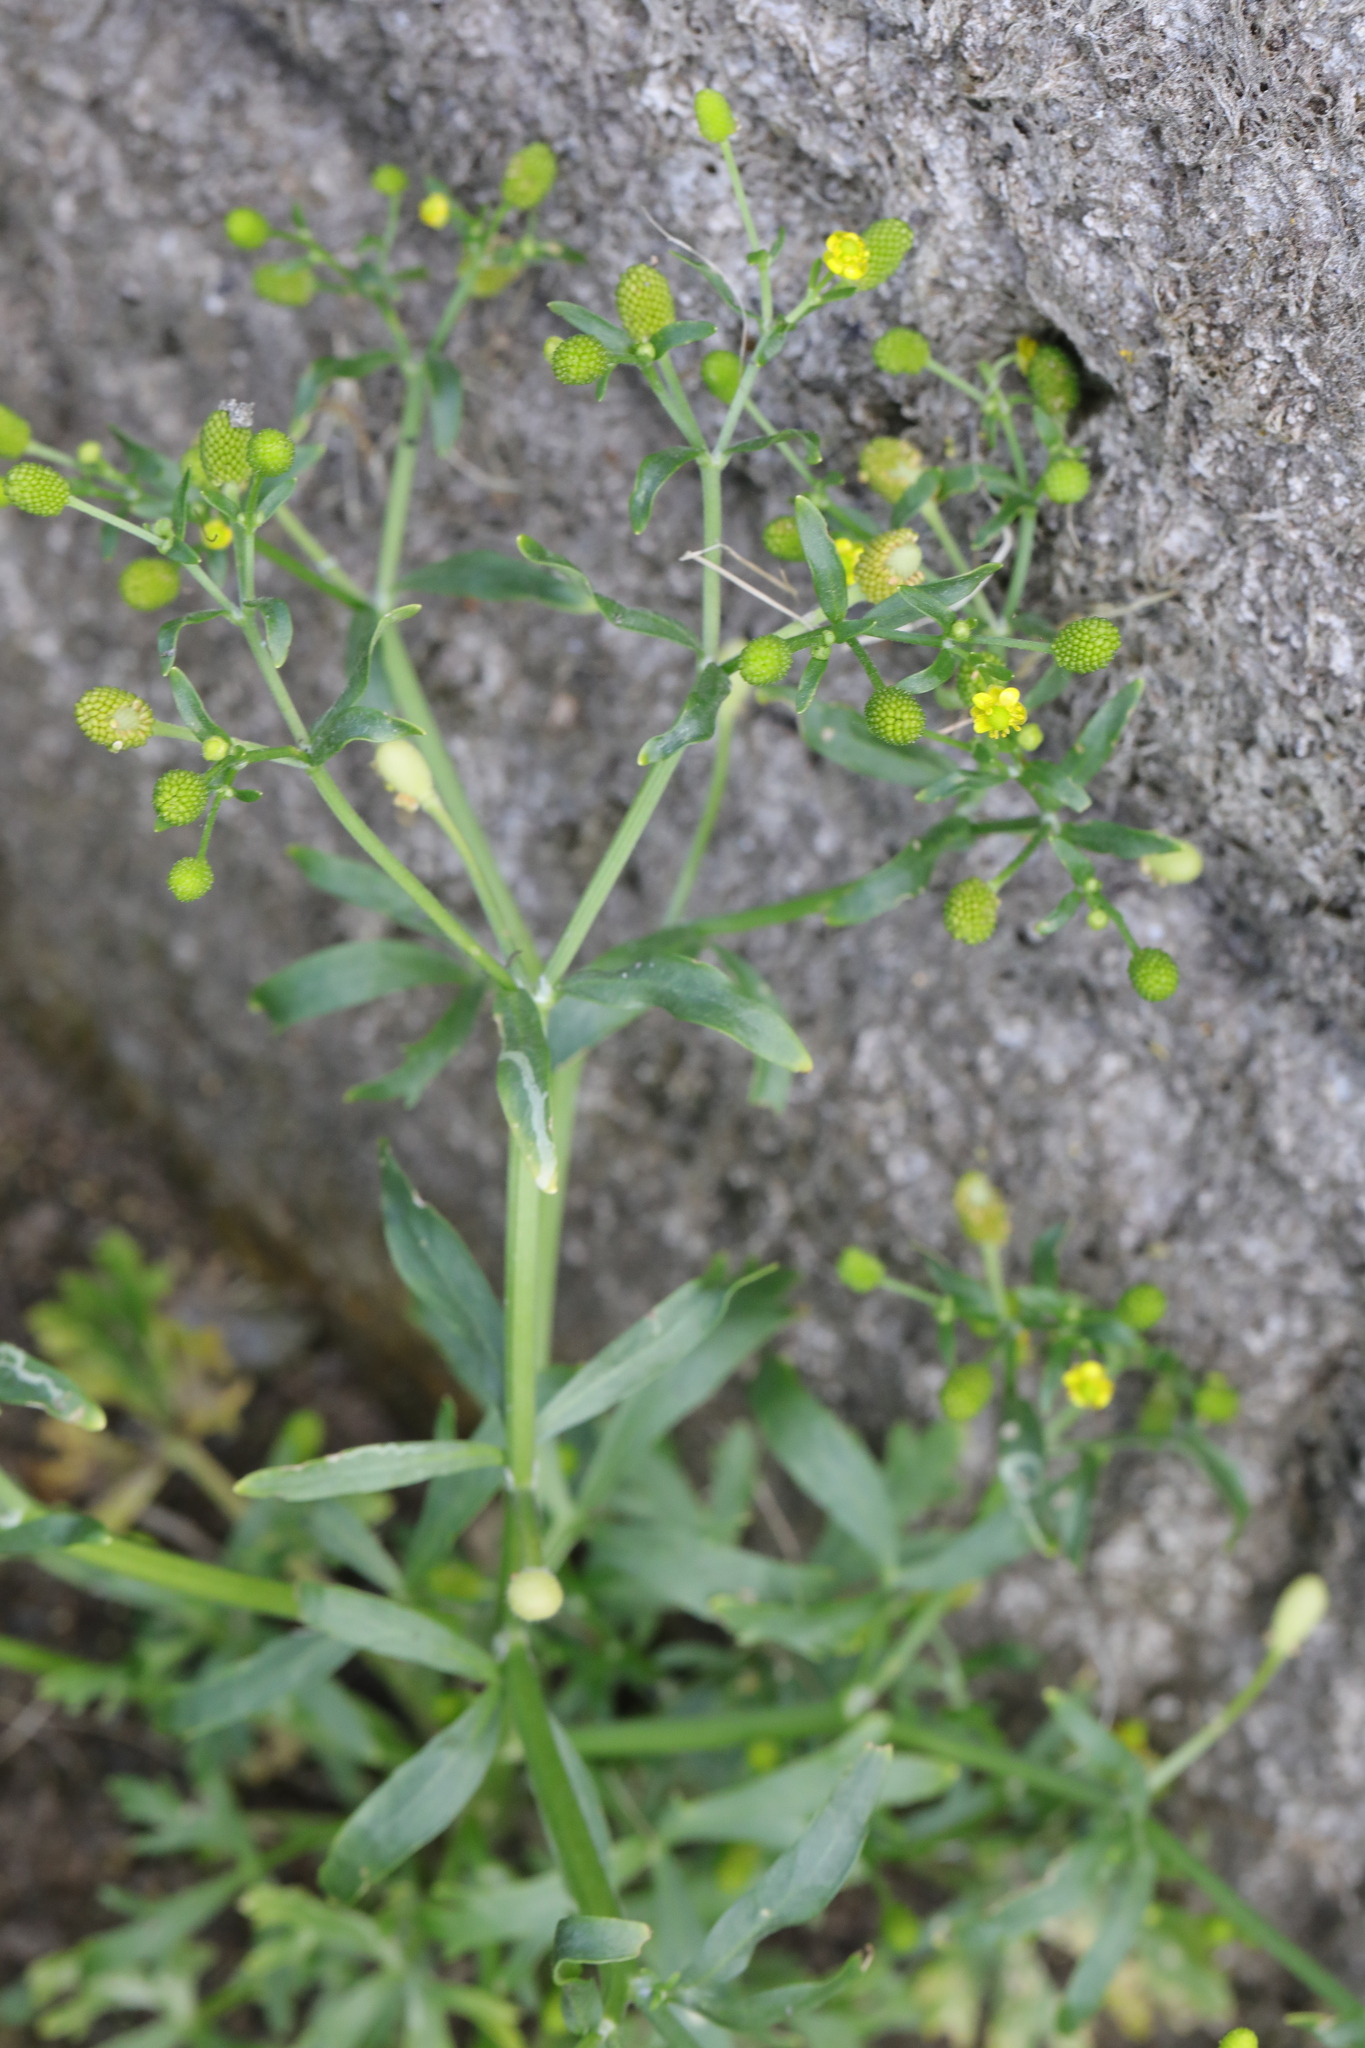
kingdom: Plantae
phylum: Tracheophyta
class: Magnoliopsida
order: Ranunculales
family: Ranunculaceae
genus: Ranunculus
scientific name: Ranunculus sceleratus
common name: Celery-leaved buttercup
